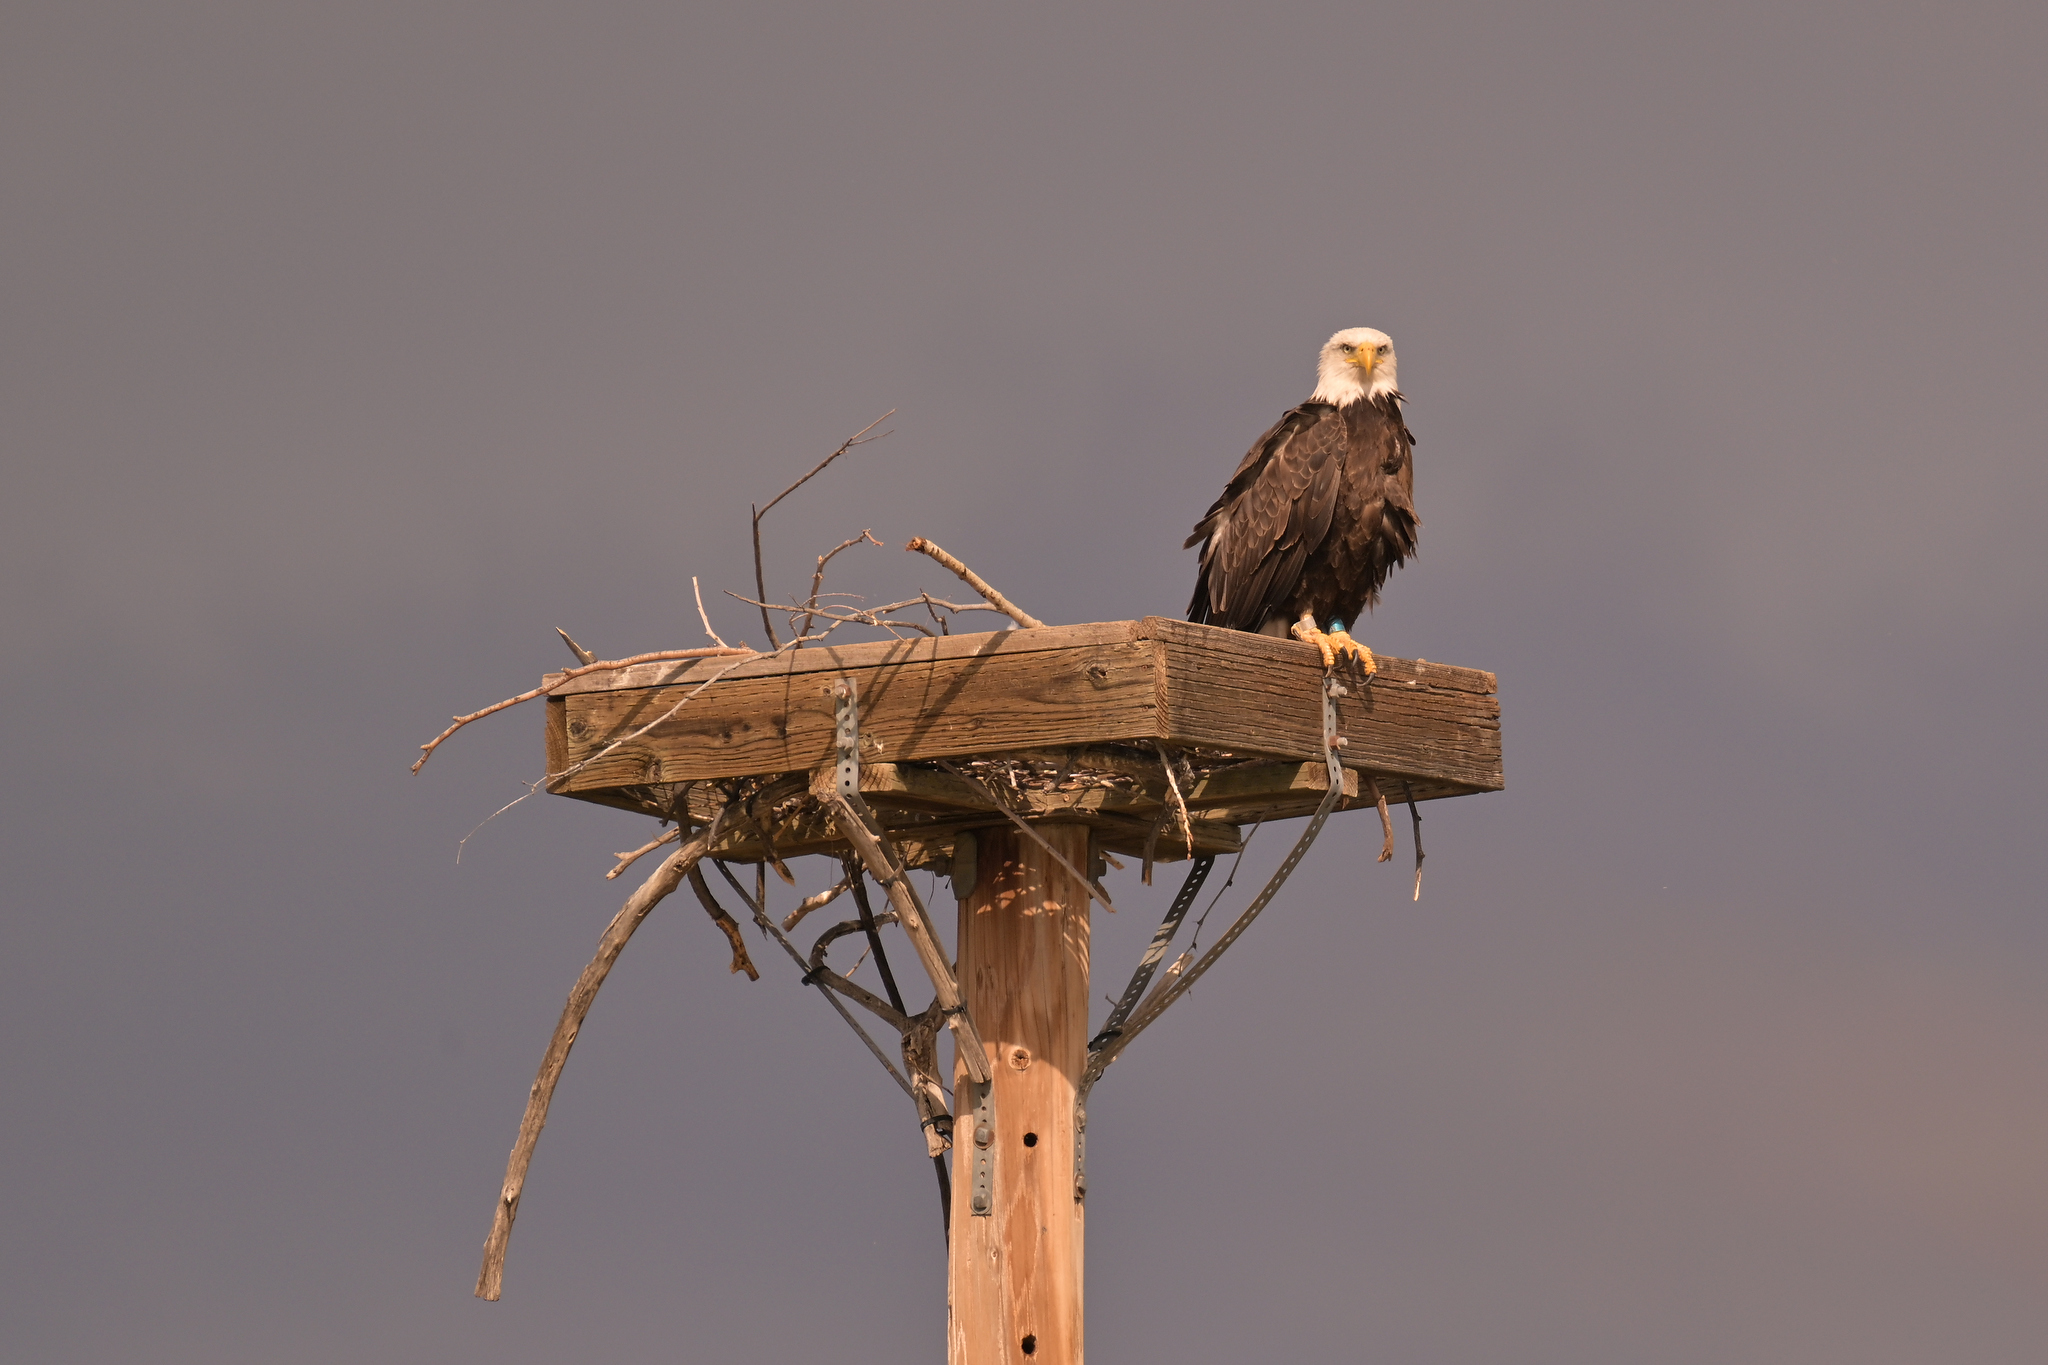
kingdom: Animalia
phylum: Chordata
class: Aves
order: Accipitriformes
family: Accipitridae
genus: Haliaeetus
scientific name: Haliaeetus leucocephalus
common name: Bald eagle
